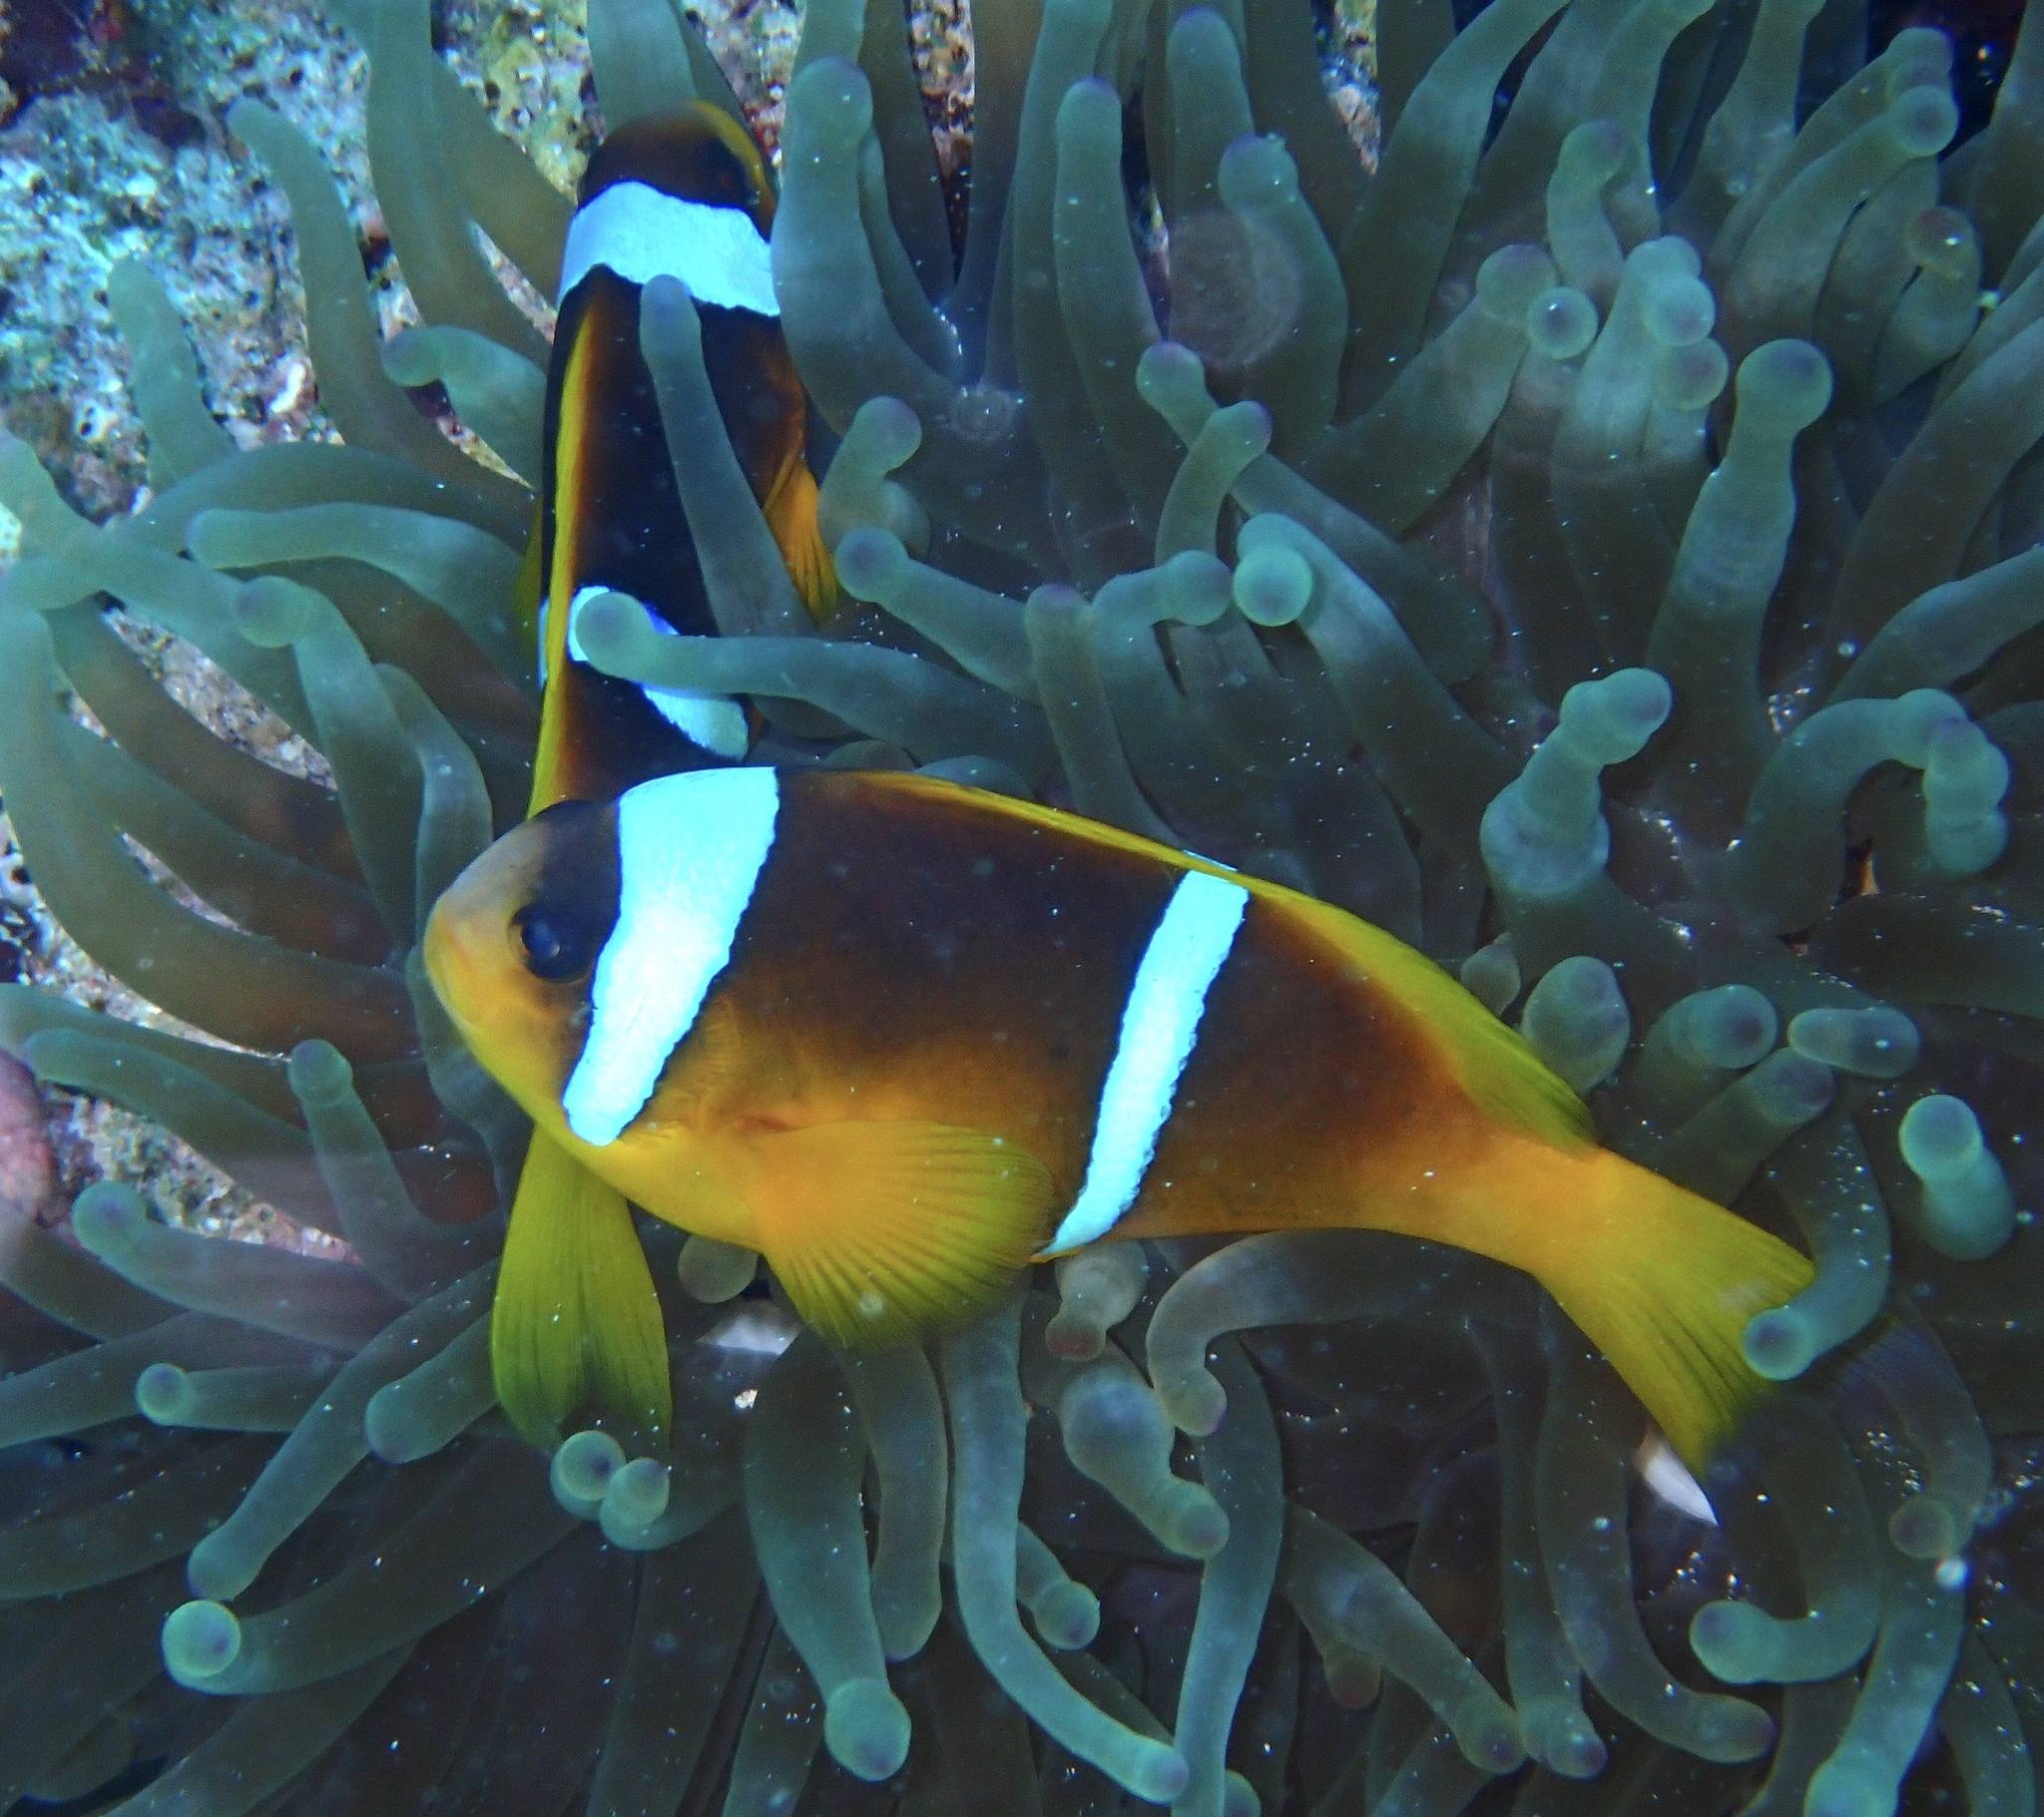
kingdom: Animalia
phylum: Chordata
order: Perciformes
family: Pomacentridae
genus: Amphiprion
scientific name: Amphiprion bicinctus
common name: Two-banded anemonefish
